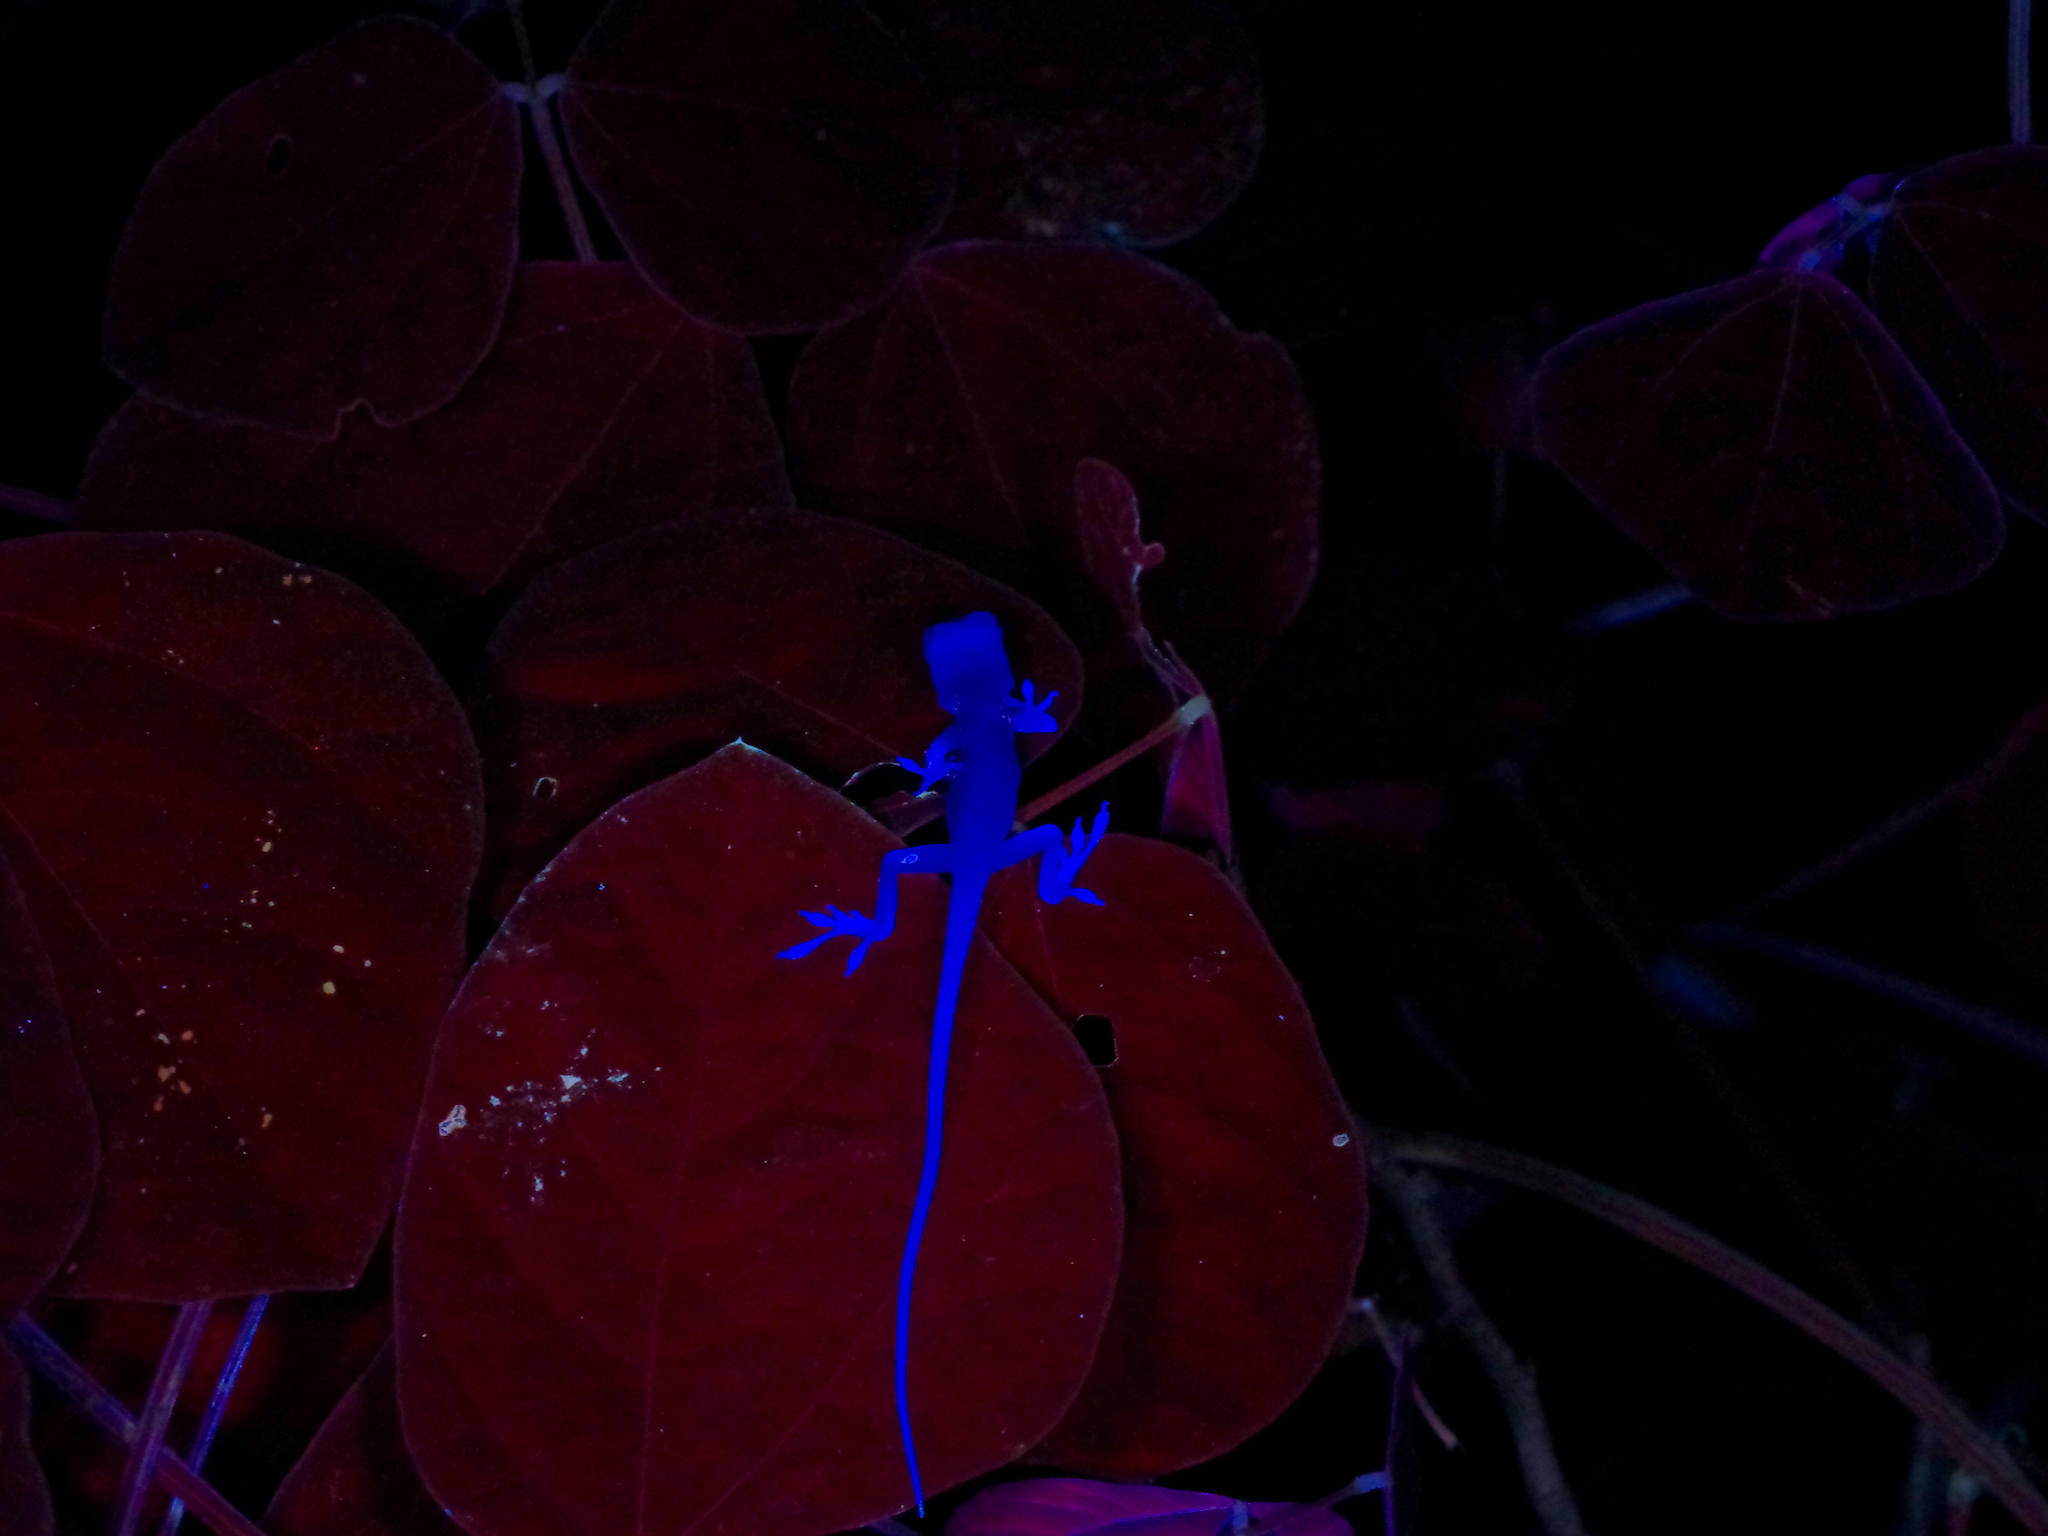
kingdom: Animalia
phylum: Chordata
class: Squamata
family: Dactyloidae
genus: Anolis
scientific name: Anolis carolinensis
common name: Green anole
